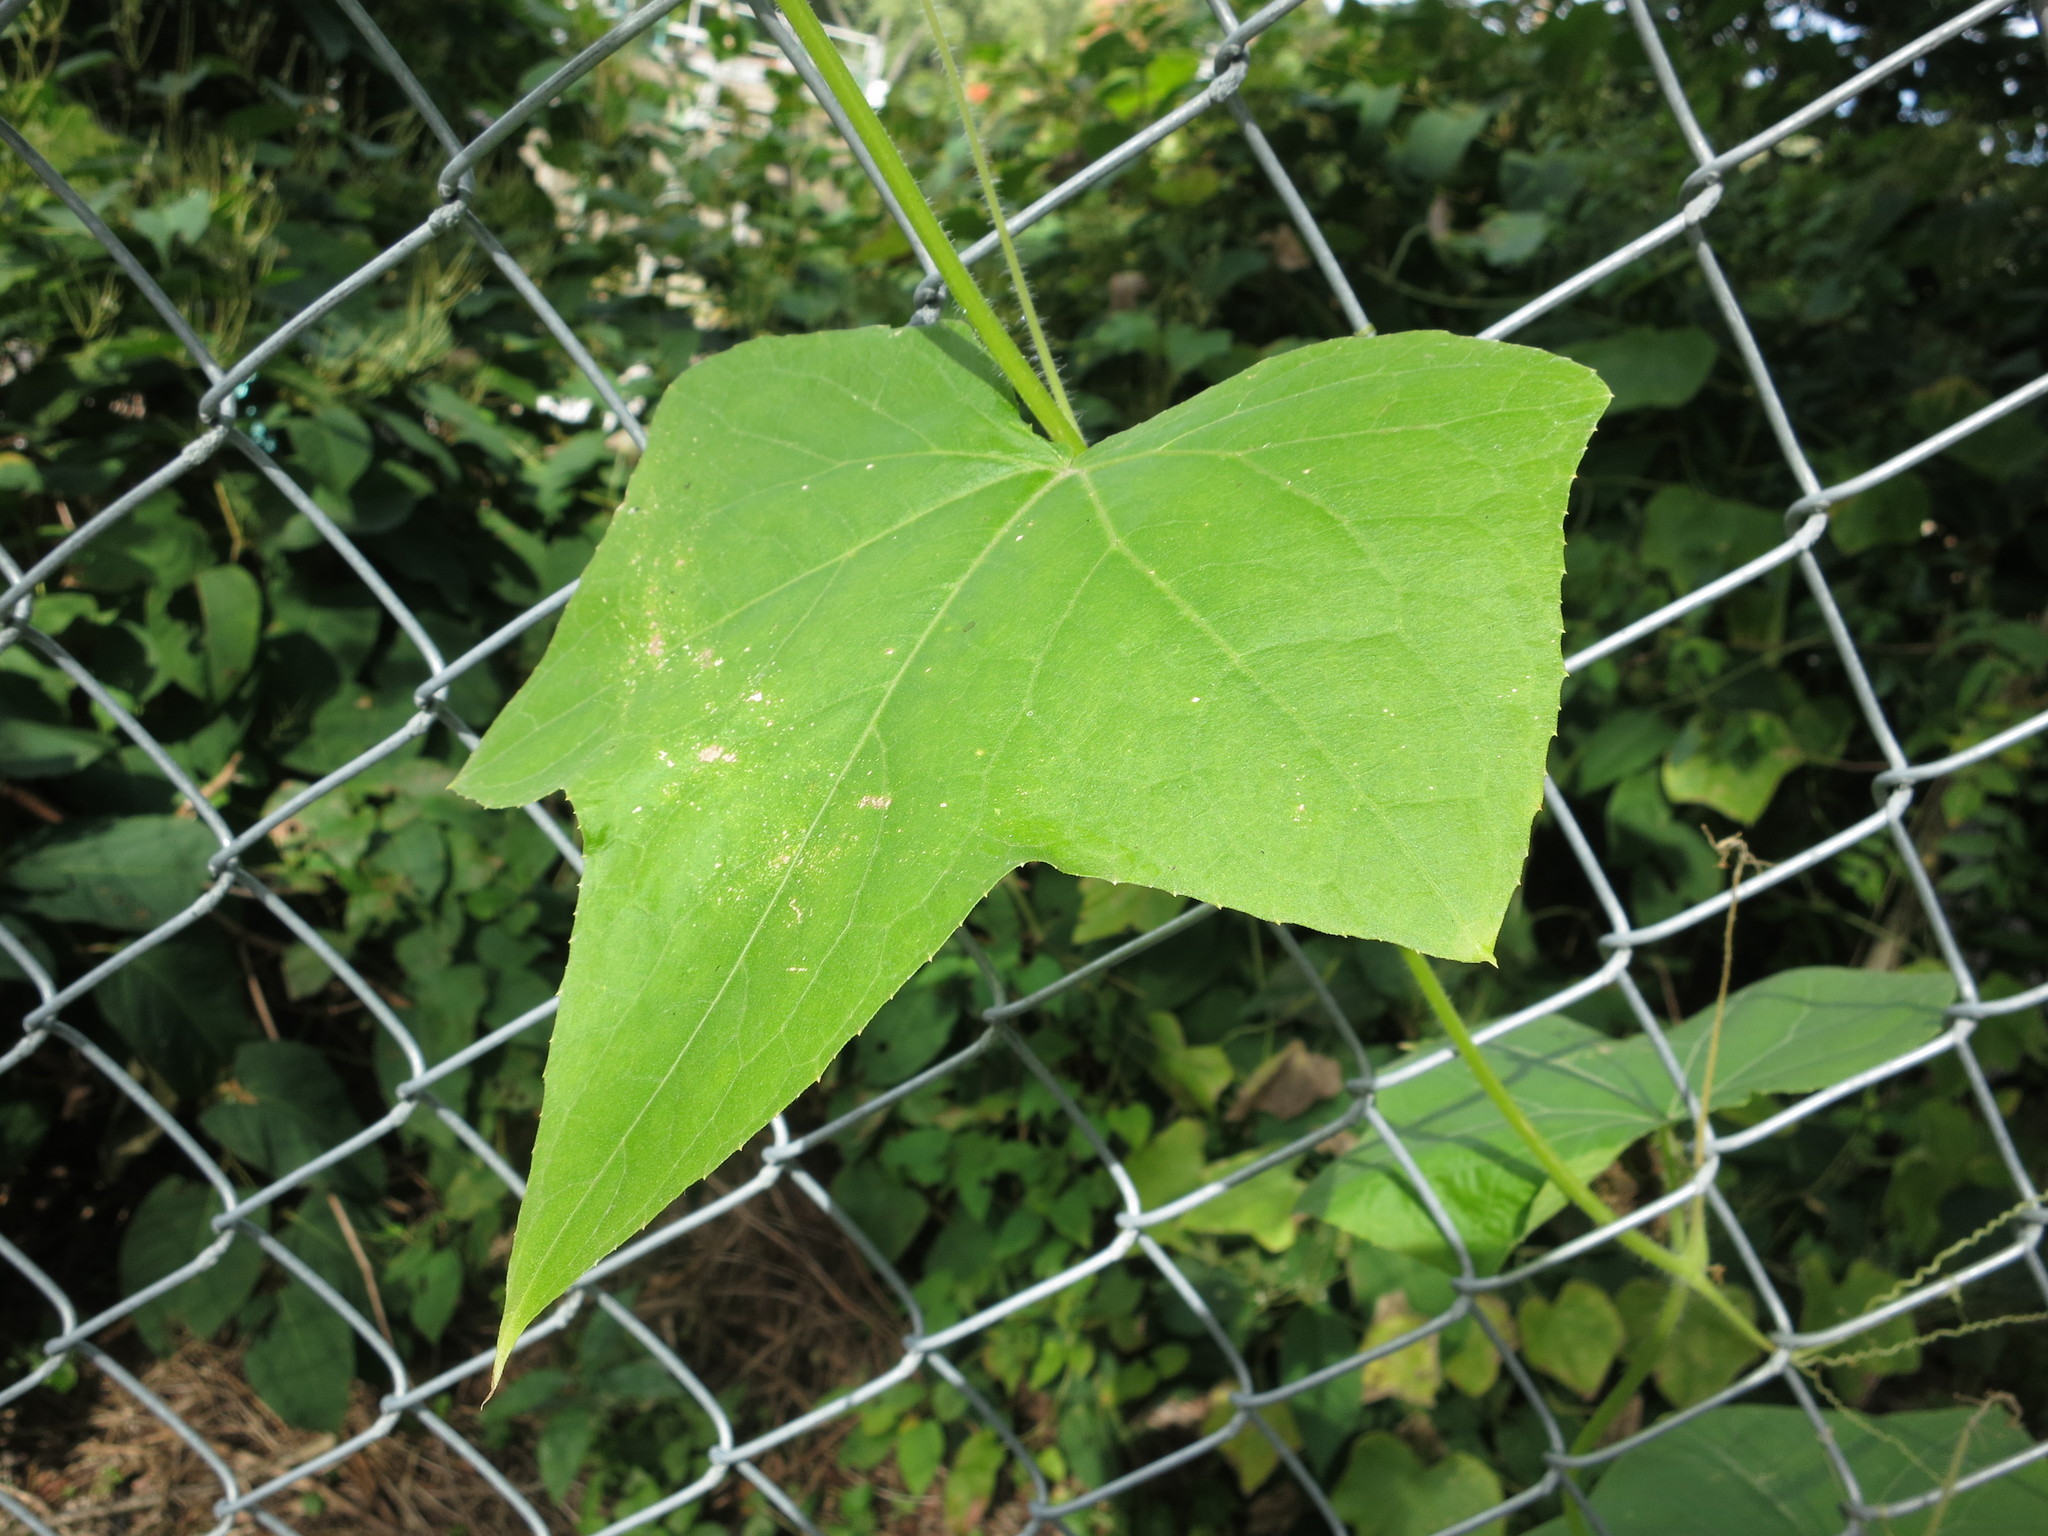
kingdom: Plantae
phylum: Tracheophyta
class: Magnoliopsida
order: Cucurbitales
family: Cucurbitaceae
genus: Sicyos
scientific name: Sicyos angulatus
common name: Angled burr cucumber
